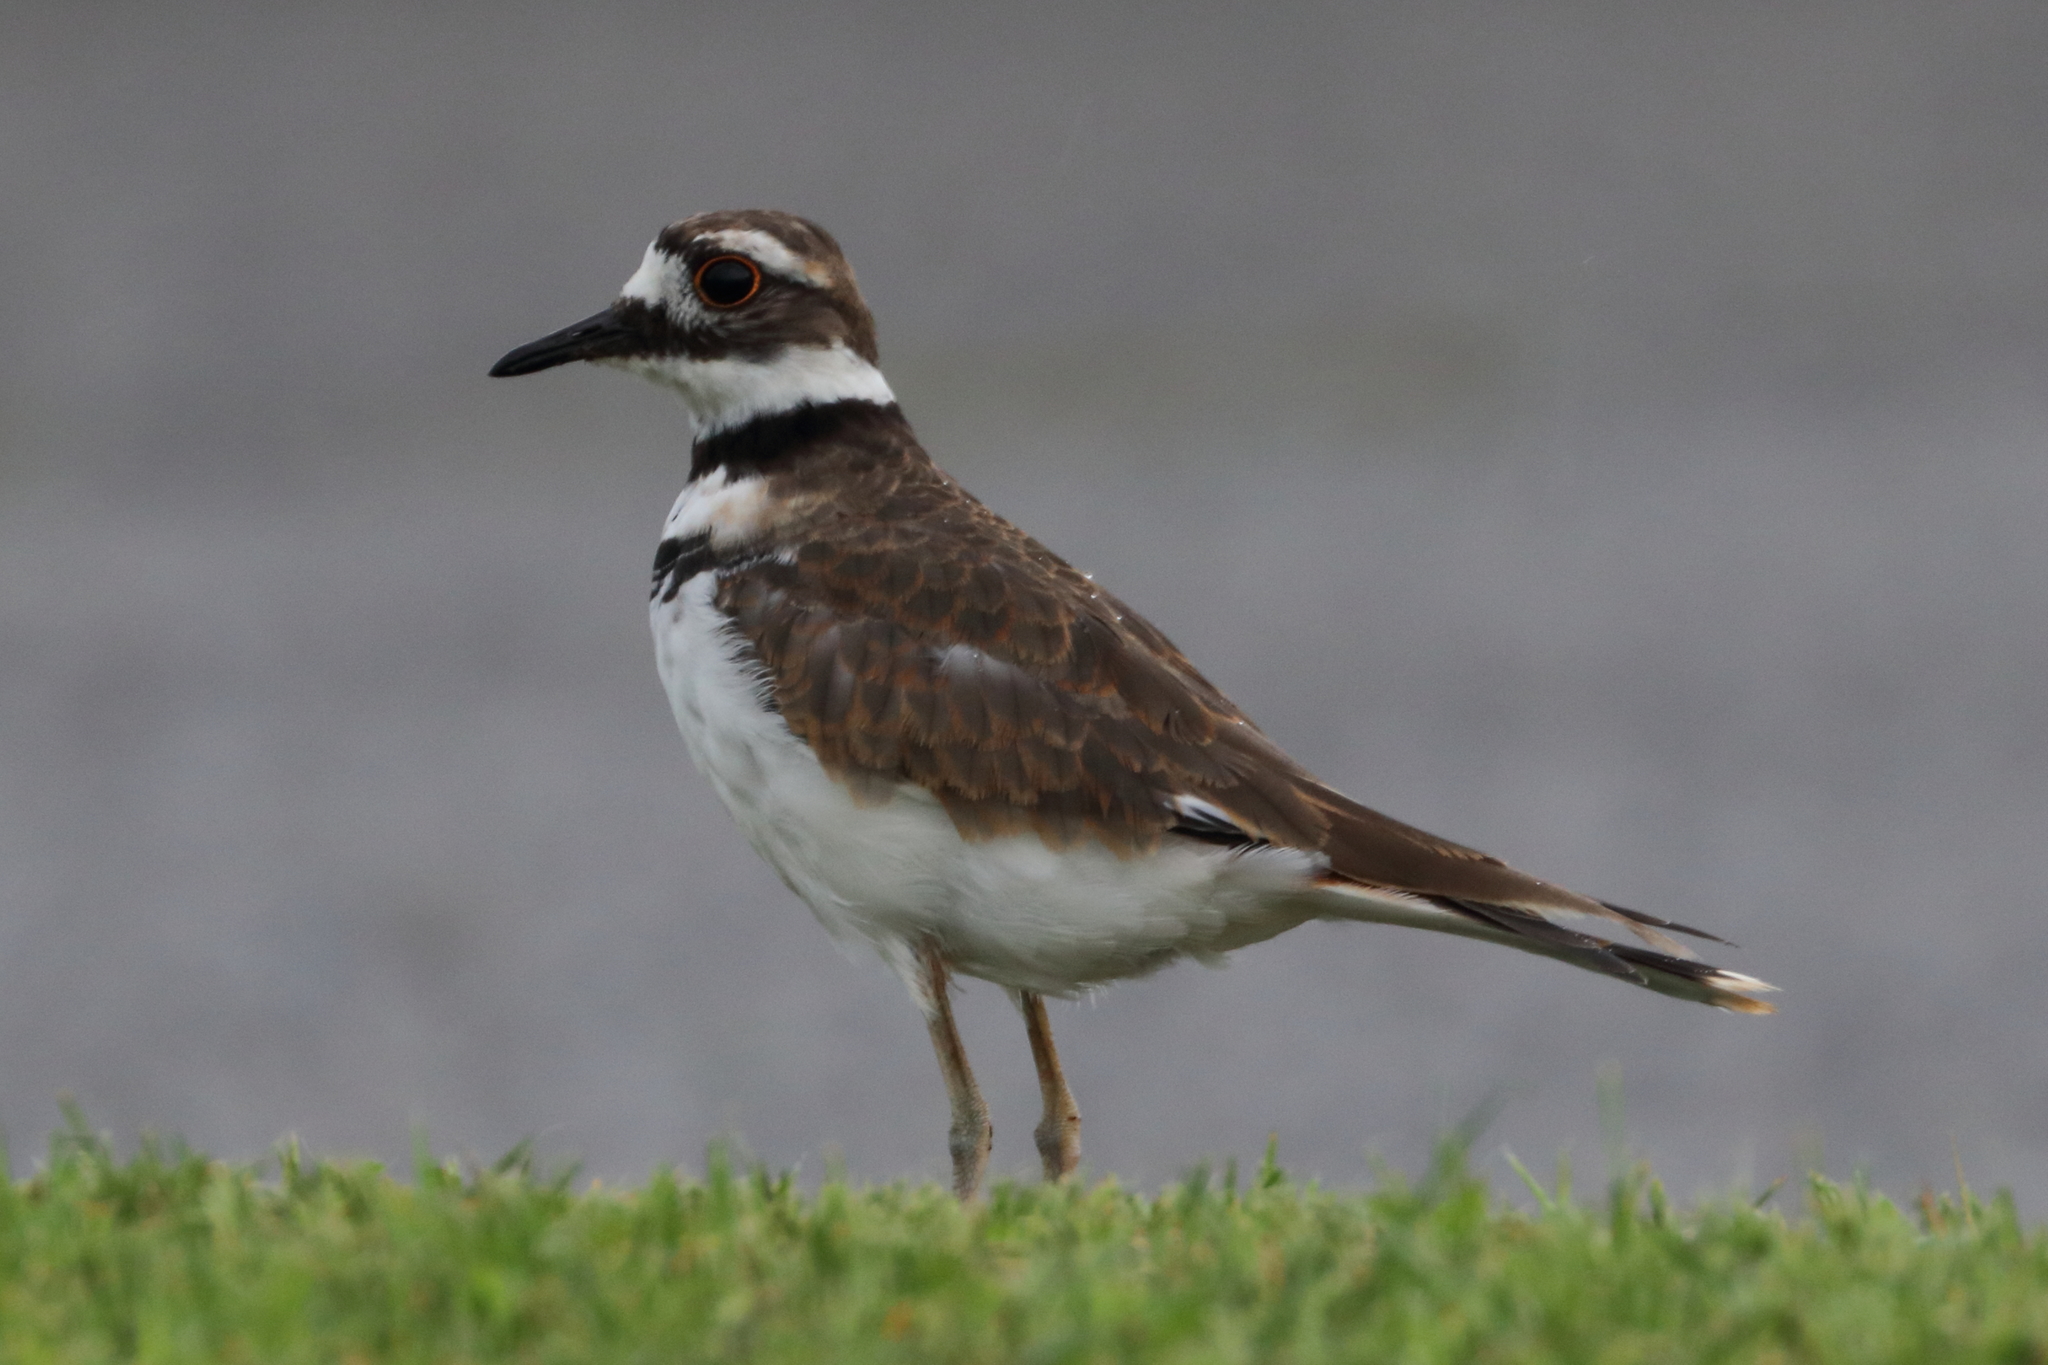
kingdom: Animalia
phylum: Chordata
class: Aves
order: Charadriiformes
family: Charadriidae
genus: Charadrius
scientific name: Charadrius vociferus
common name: Killdeer
